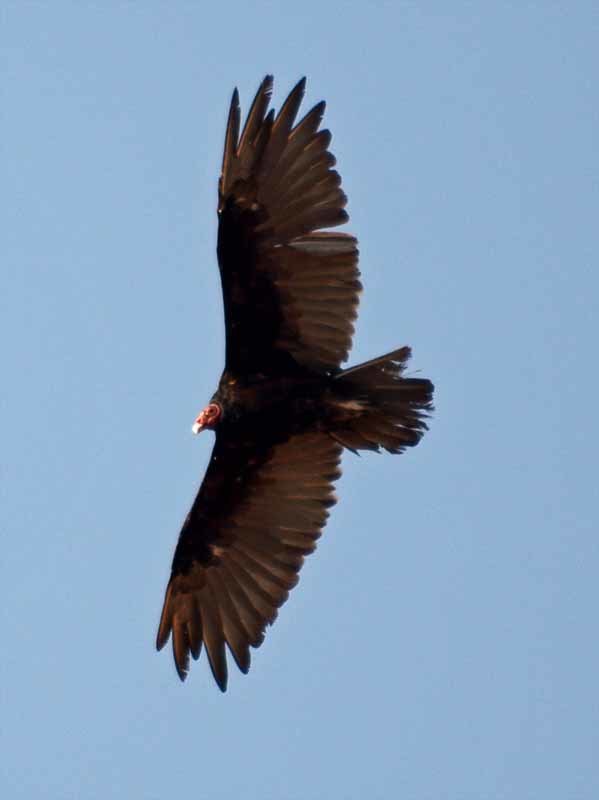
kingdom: Animalia
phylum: Chordata
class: Aves
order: Accipitriformes
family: Cathartidae
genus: Cathartes
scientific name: Cathartes aura
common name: Turkey vulture
